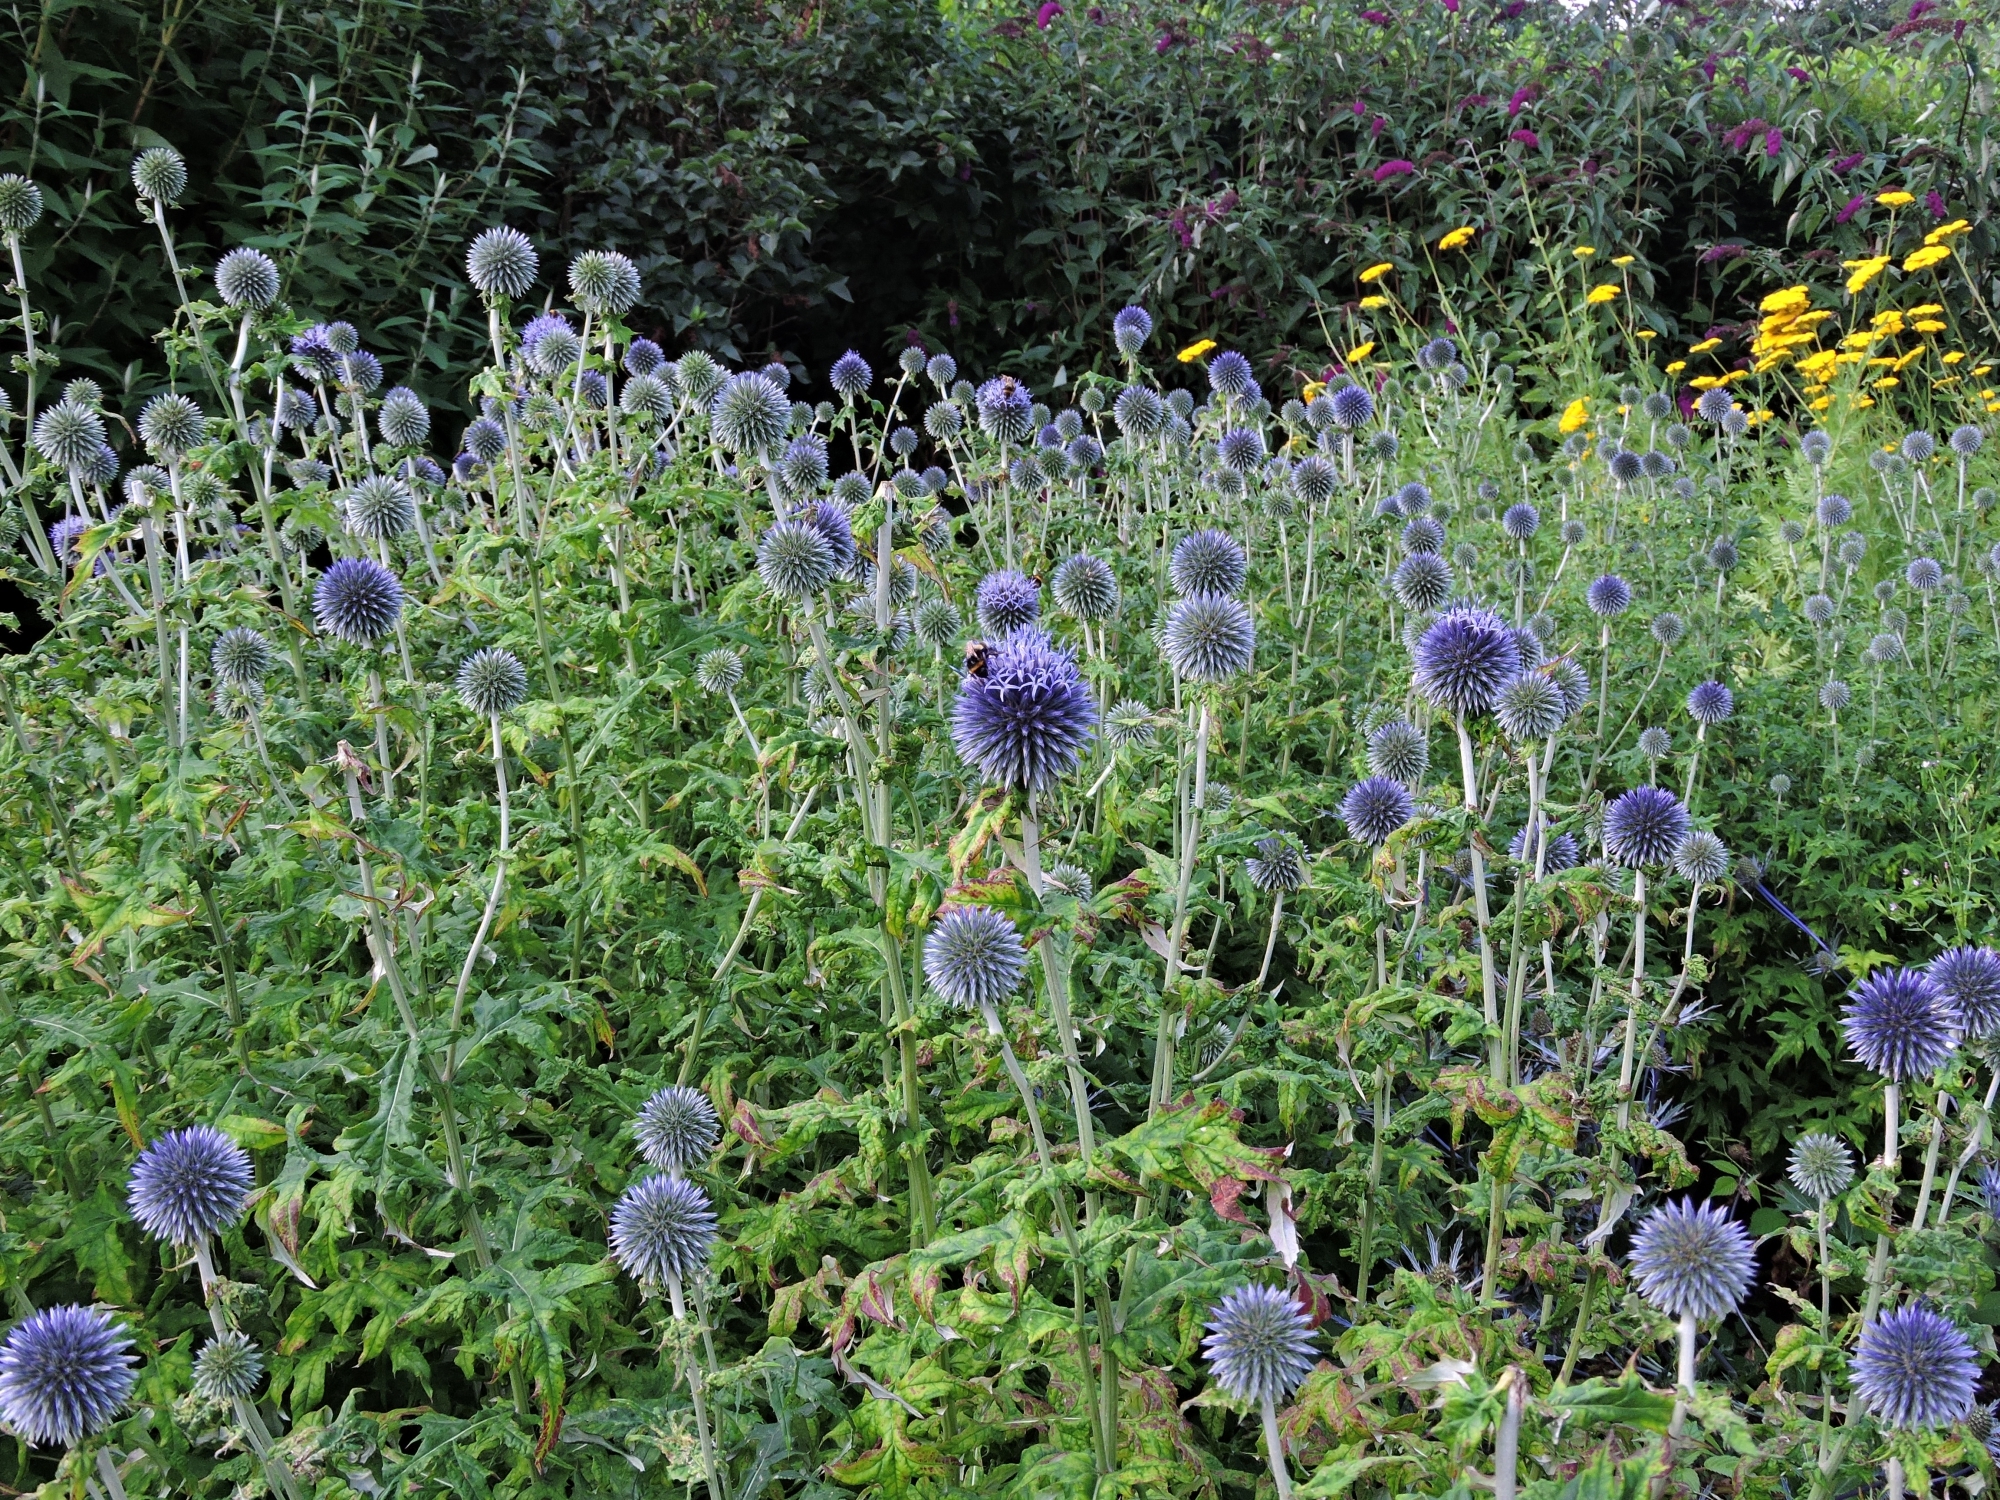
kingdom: Plantae
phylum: Tracheophyta
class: Magnoliopsida
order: Asterales
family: Asteraceae
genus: Echinops
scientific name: Echinops bannaticus
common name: Blue globe-thistle
